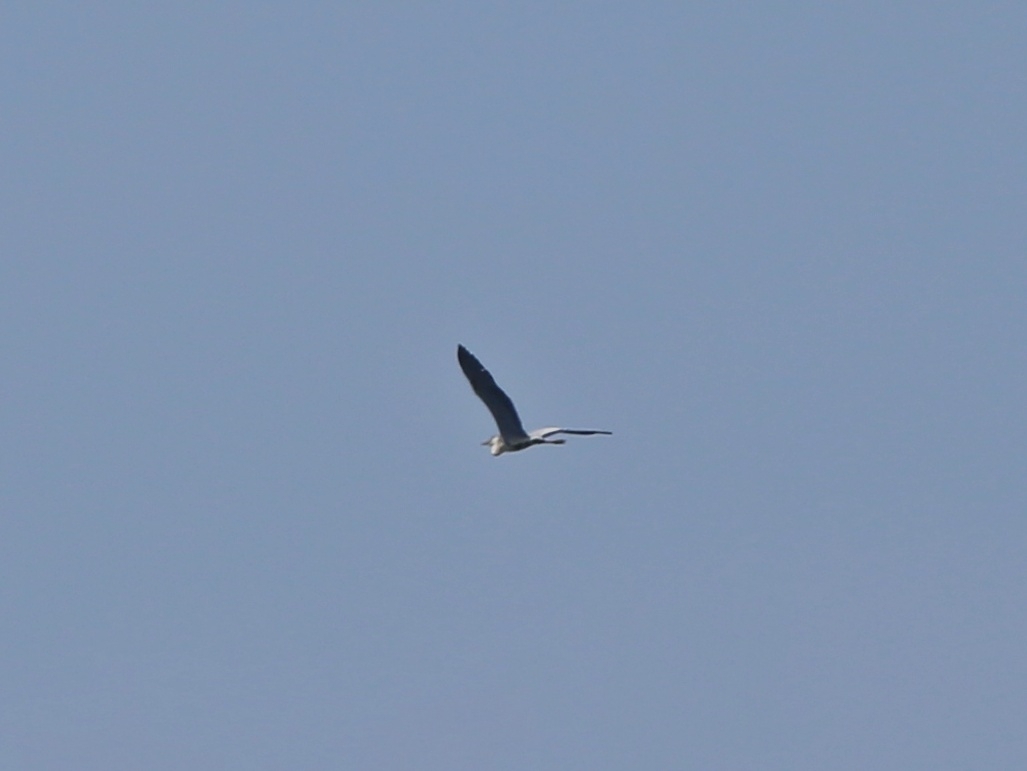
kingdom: Animalia
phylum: Chordata
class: Aves
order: Pelecaniformes
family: Ardeidae
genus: Ardea
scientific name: Ardea cinerea
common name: Grey heron
